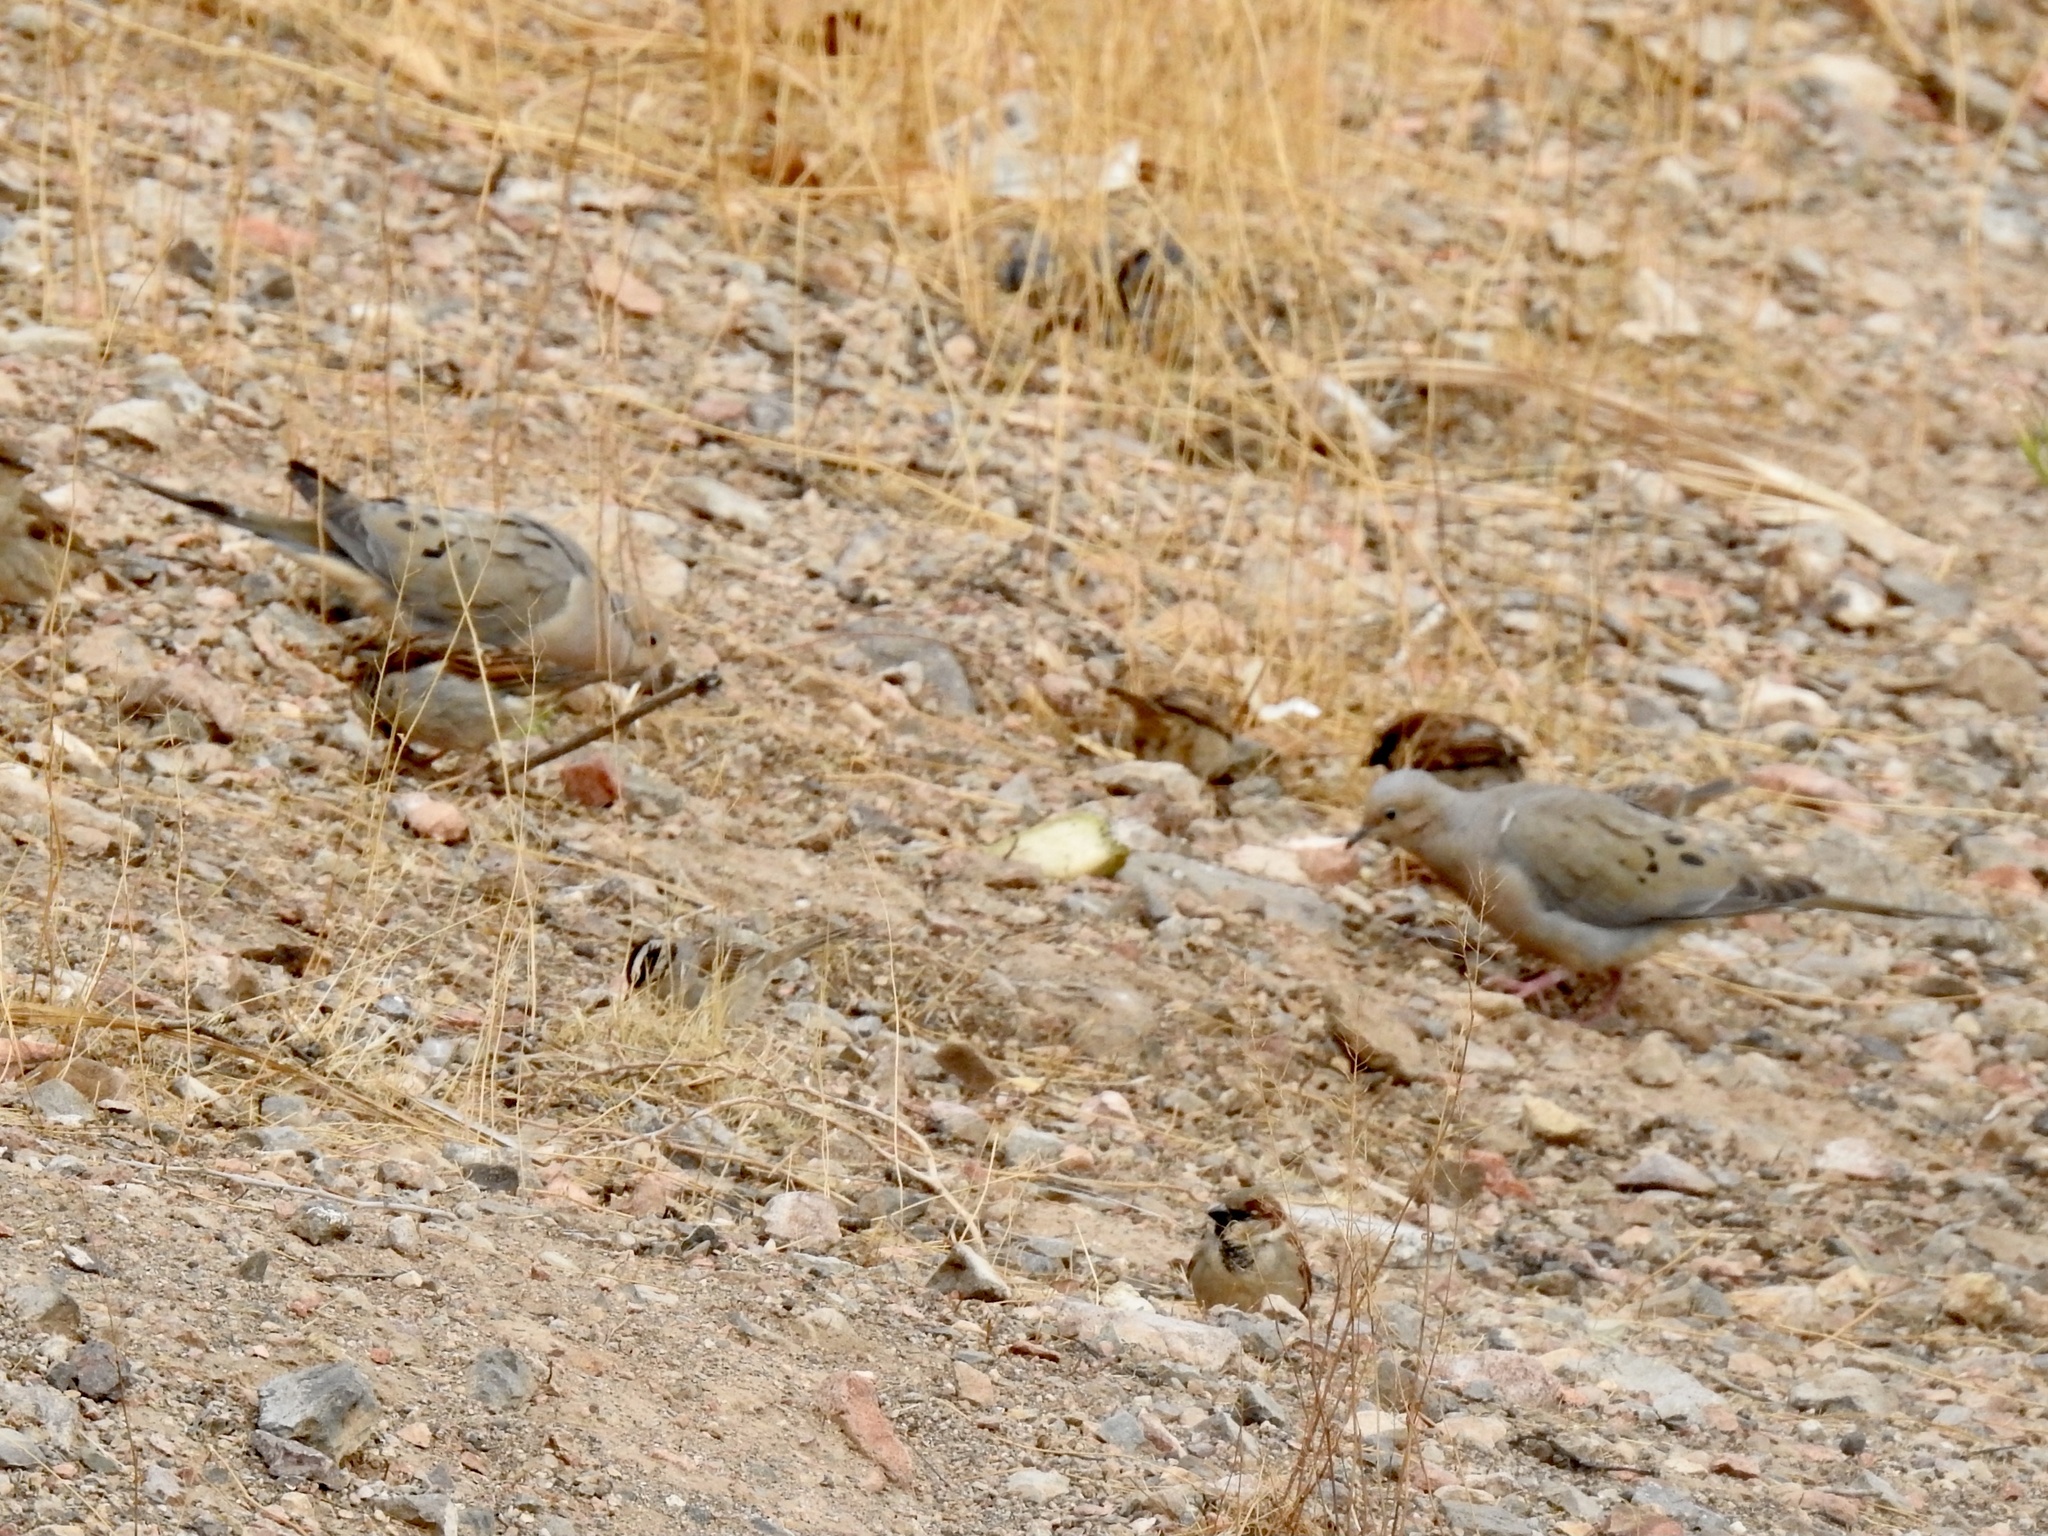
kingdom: Animalia
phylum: Chordata
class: Aves
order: Columbiformes
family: Columbidae
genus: Zenaida
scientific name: Zenaida macroura
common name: Mourning dove
